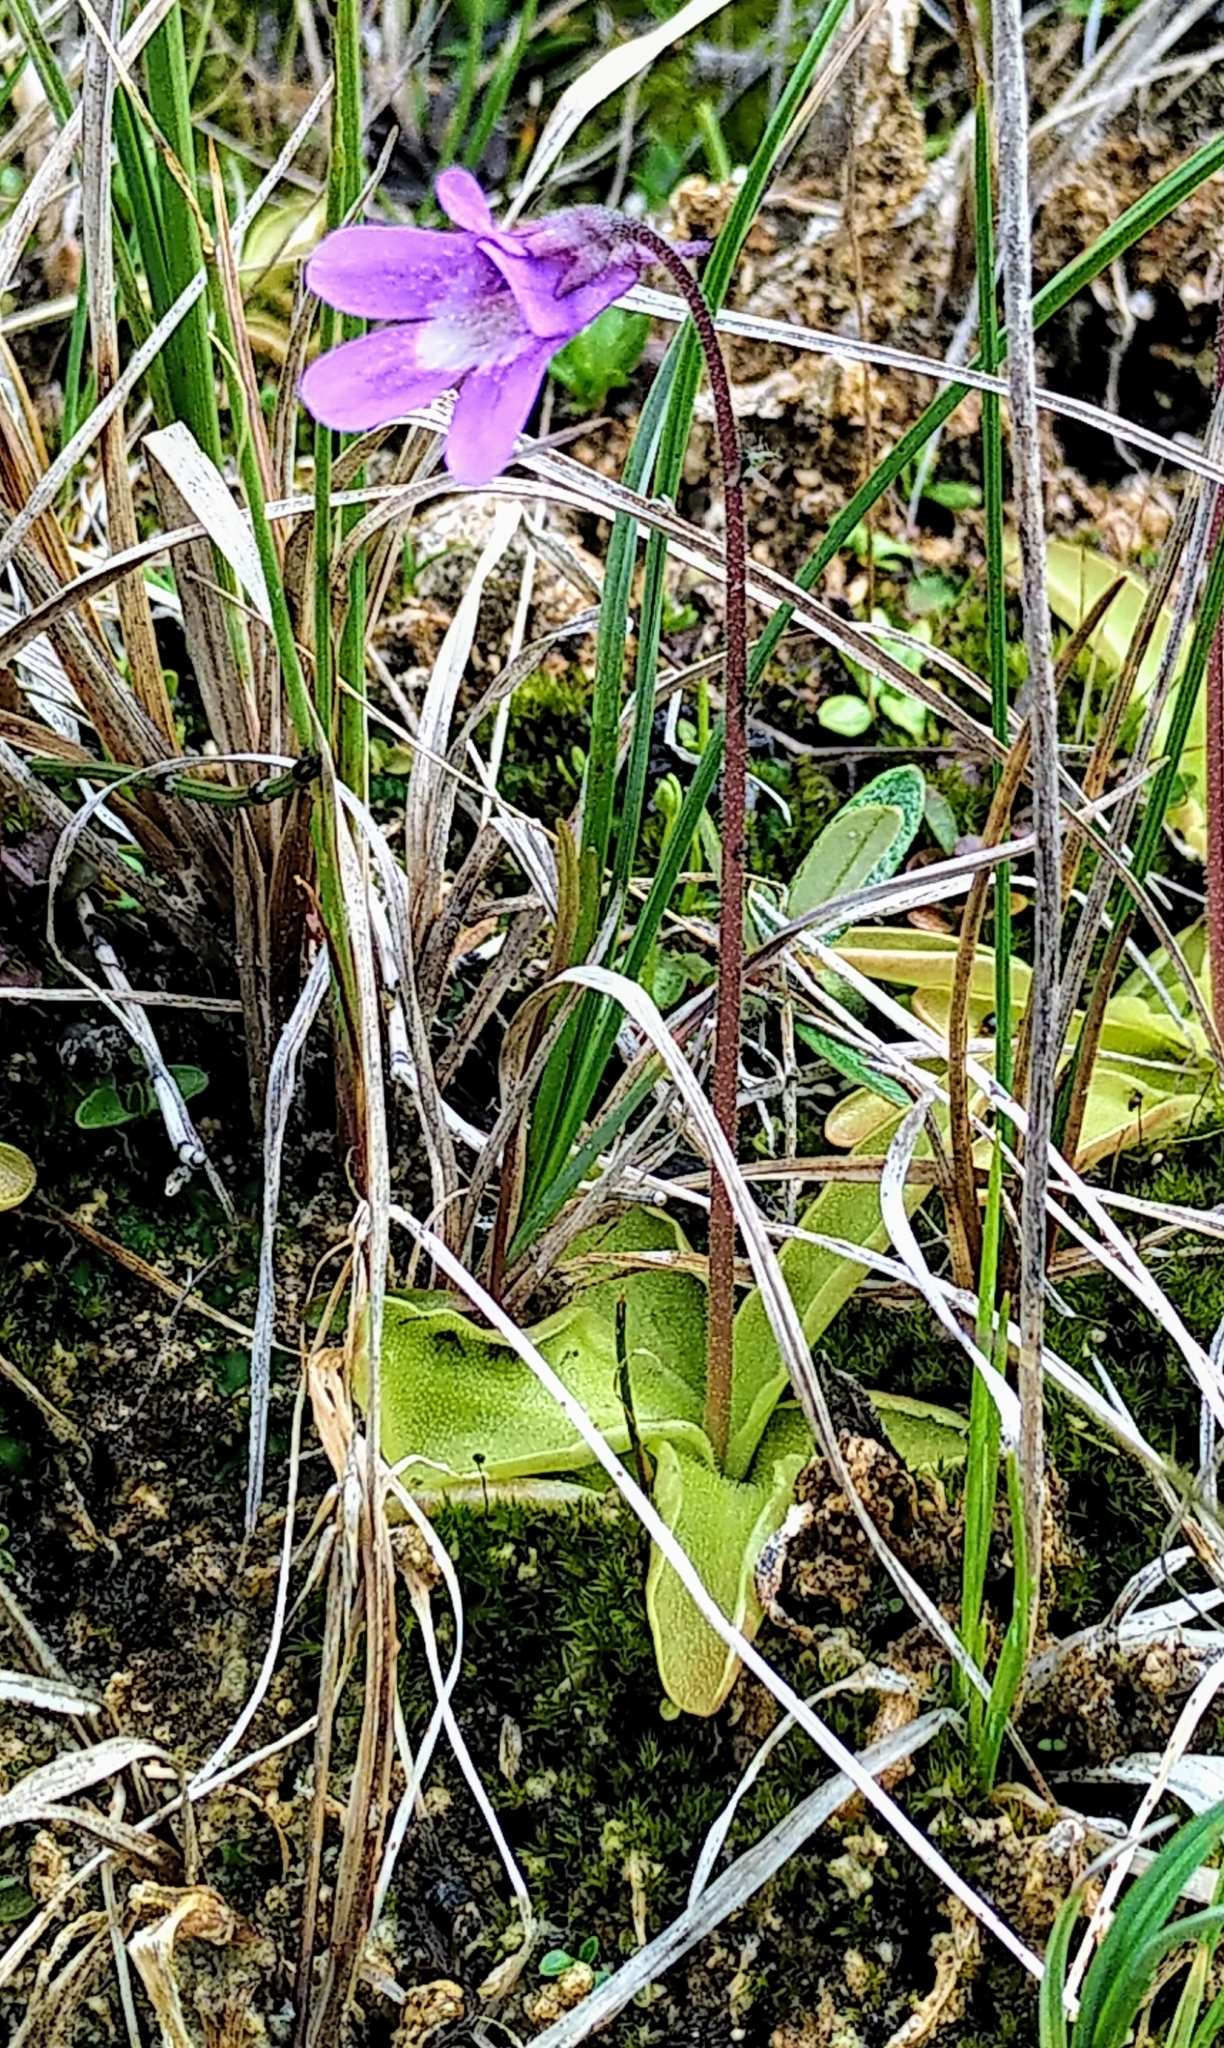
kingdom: Plantae
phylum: Tracheophyta
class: Magnoliopsida
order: Lamiales
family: Lentibulariaceae
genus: Pinguicula
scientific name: Pinguicula vulgaris
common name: Common butterwort
